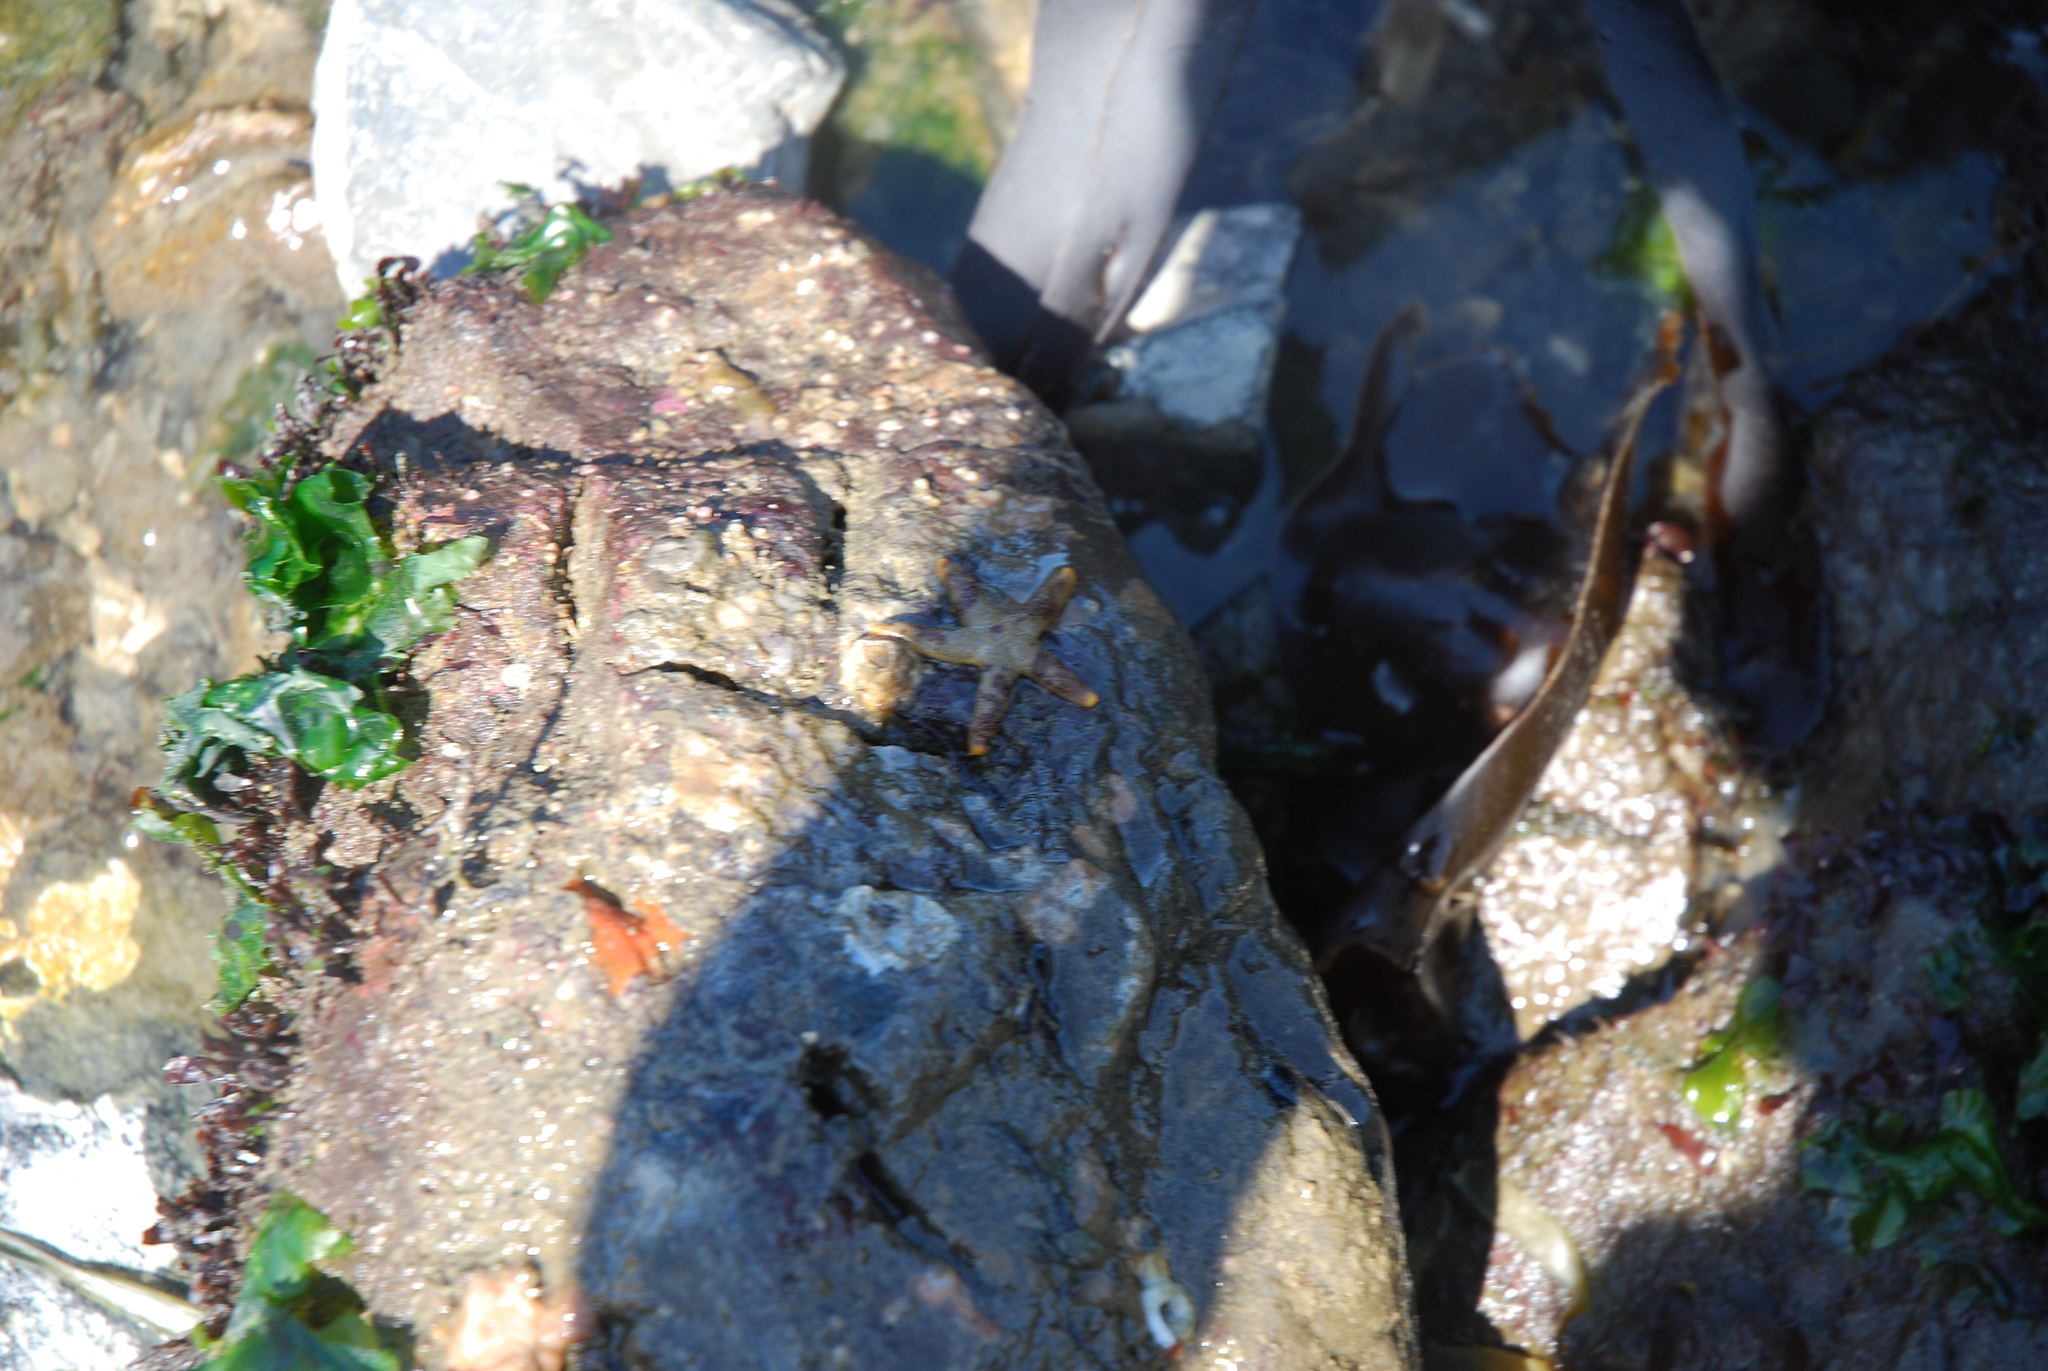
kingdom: Animalia
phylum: Echinodermata
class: Asteroidea
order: Spinulosida
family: Echinasteridae
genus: Henricia
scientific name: Henricia pumila
